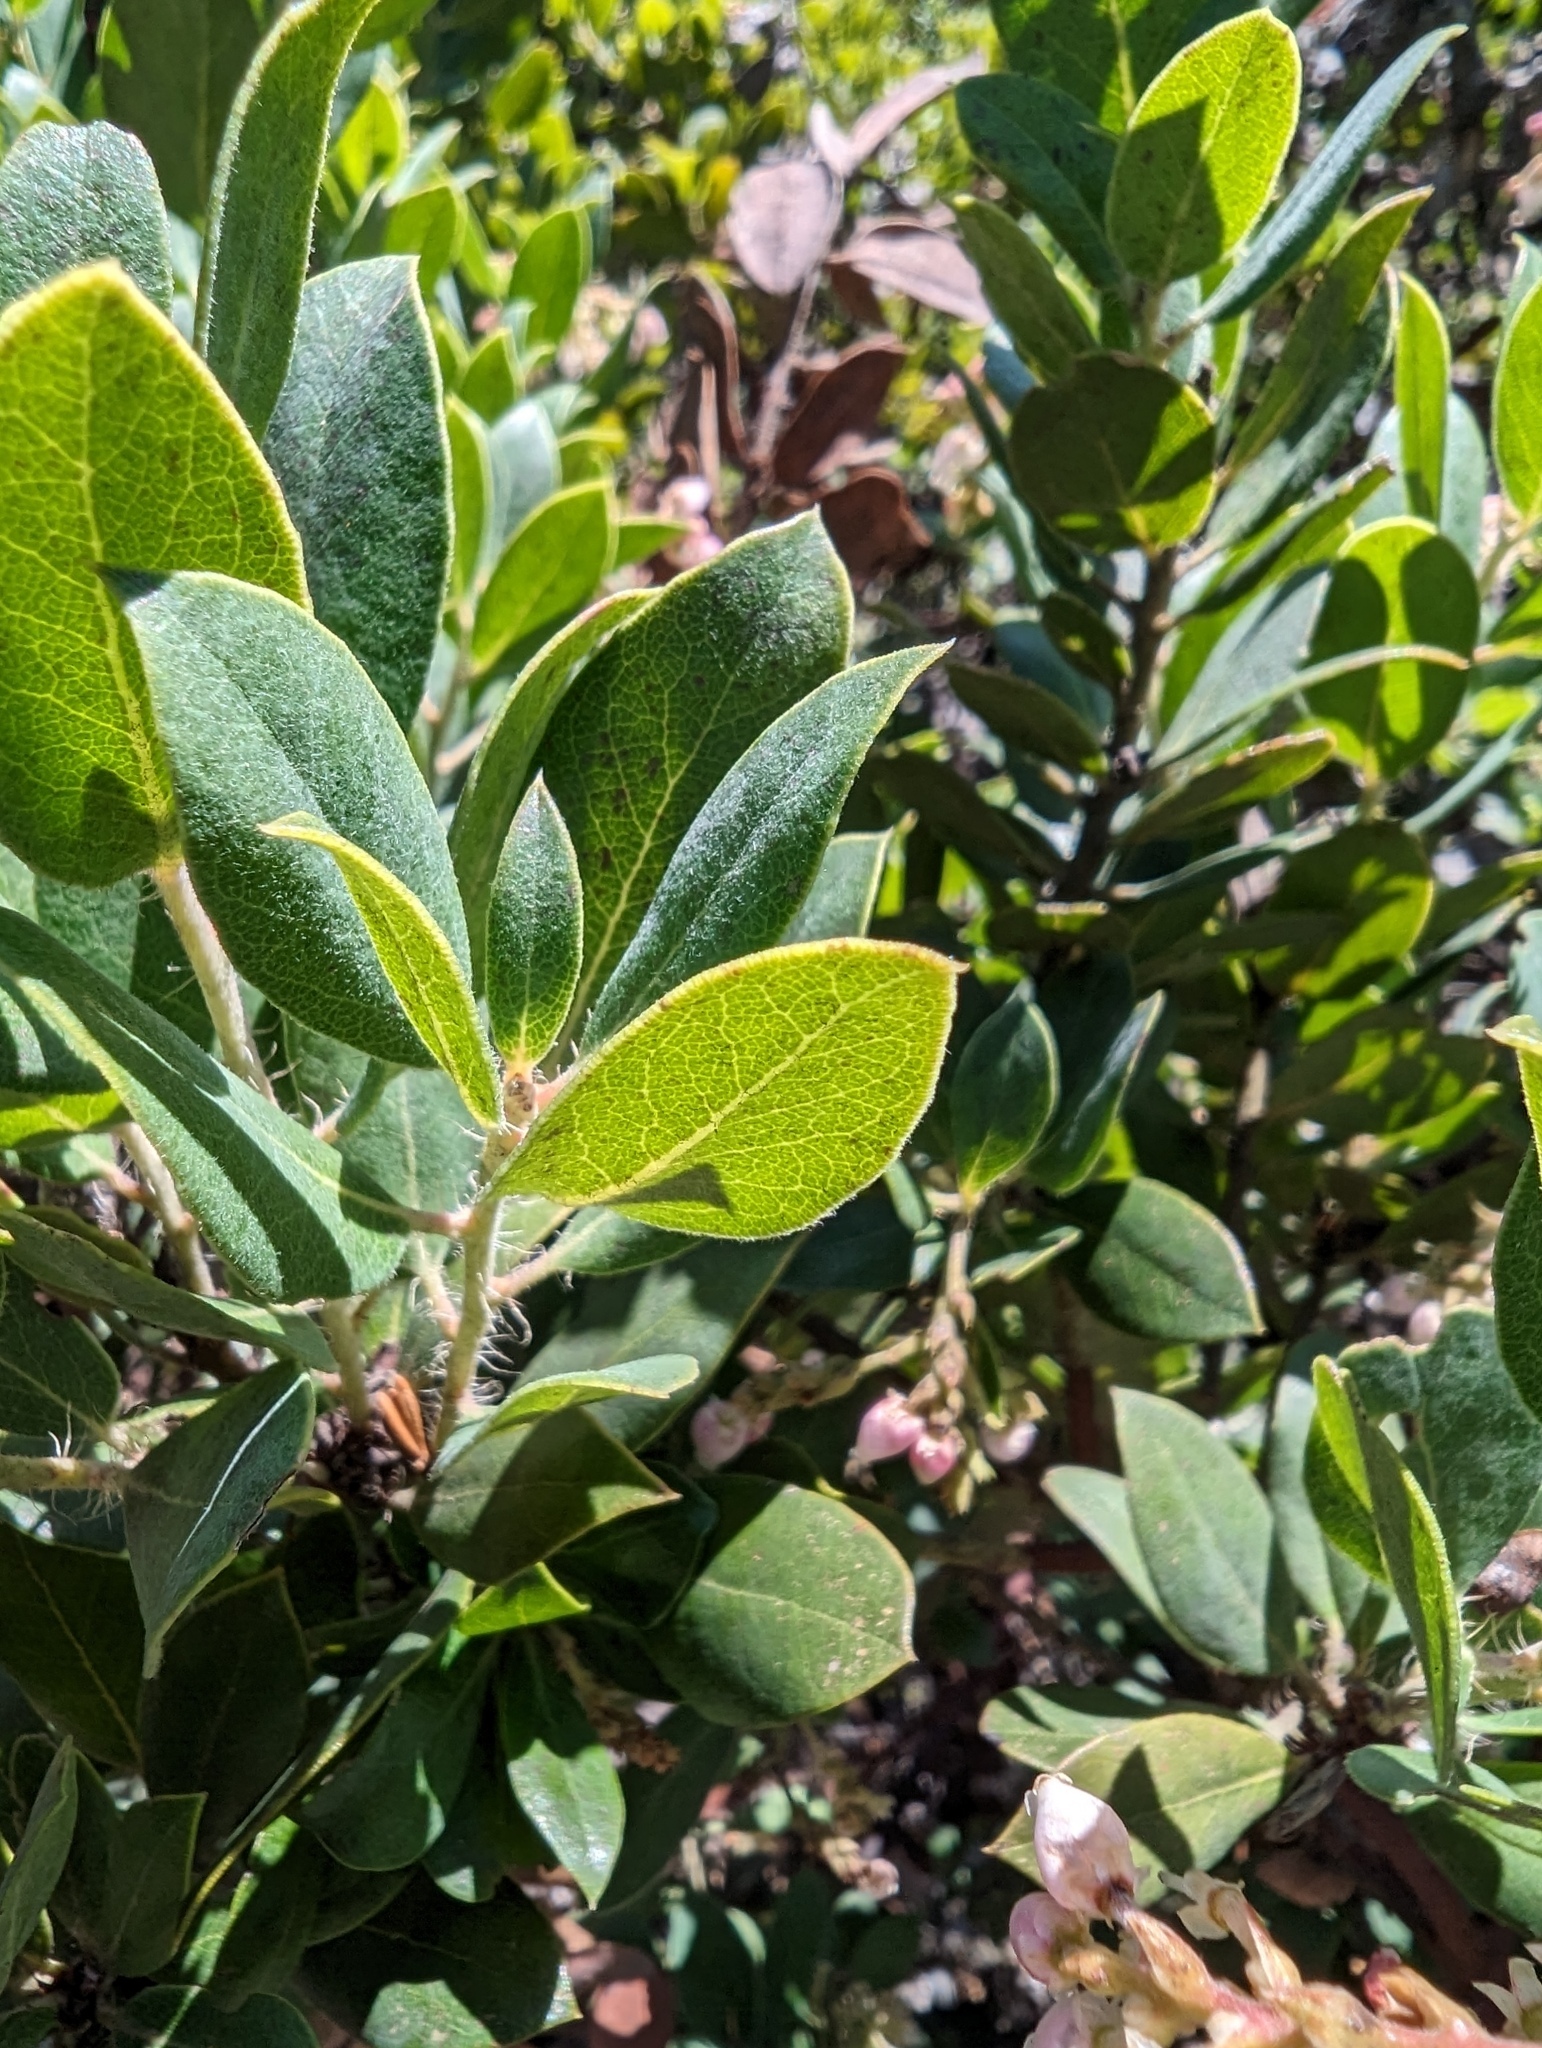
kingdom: Plantae
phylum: Tracheophyta
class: Magnoliopsida
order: Ericales
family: Ericaceae
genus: Arctostaphylos
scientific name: Arctostaphylos crustacea
